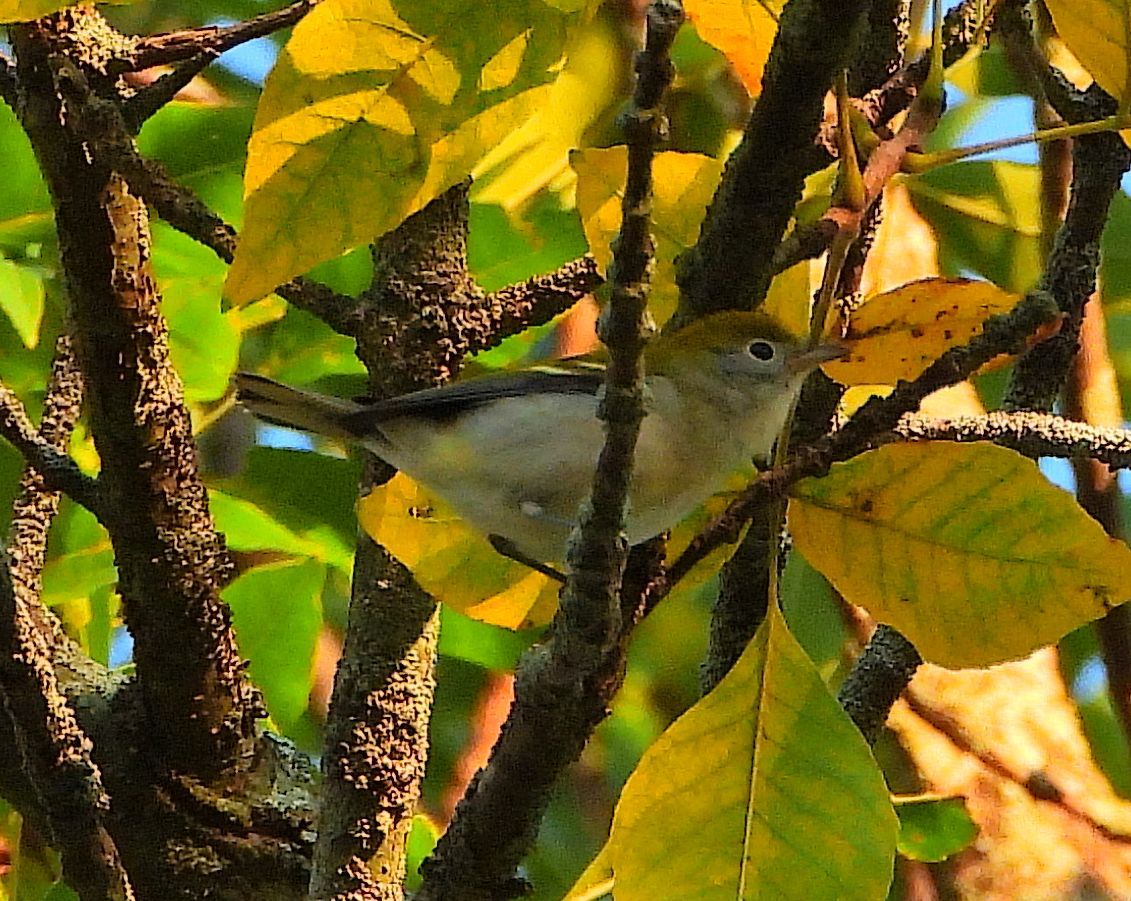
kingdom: Animalia
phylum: Chordata
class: Aves
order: Passeriformes
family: Parulidae
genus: Setophaga
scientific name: Setophaga pensylvanica
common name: Chestnut-sided warbler
